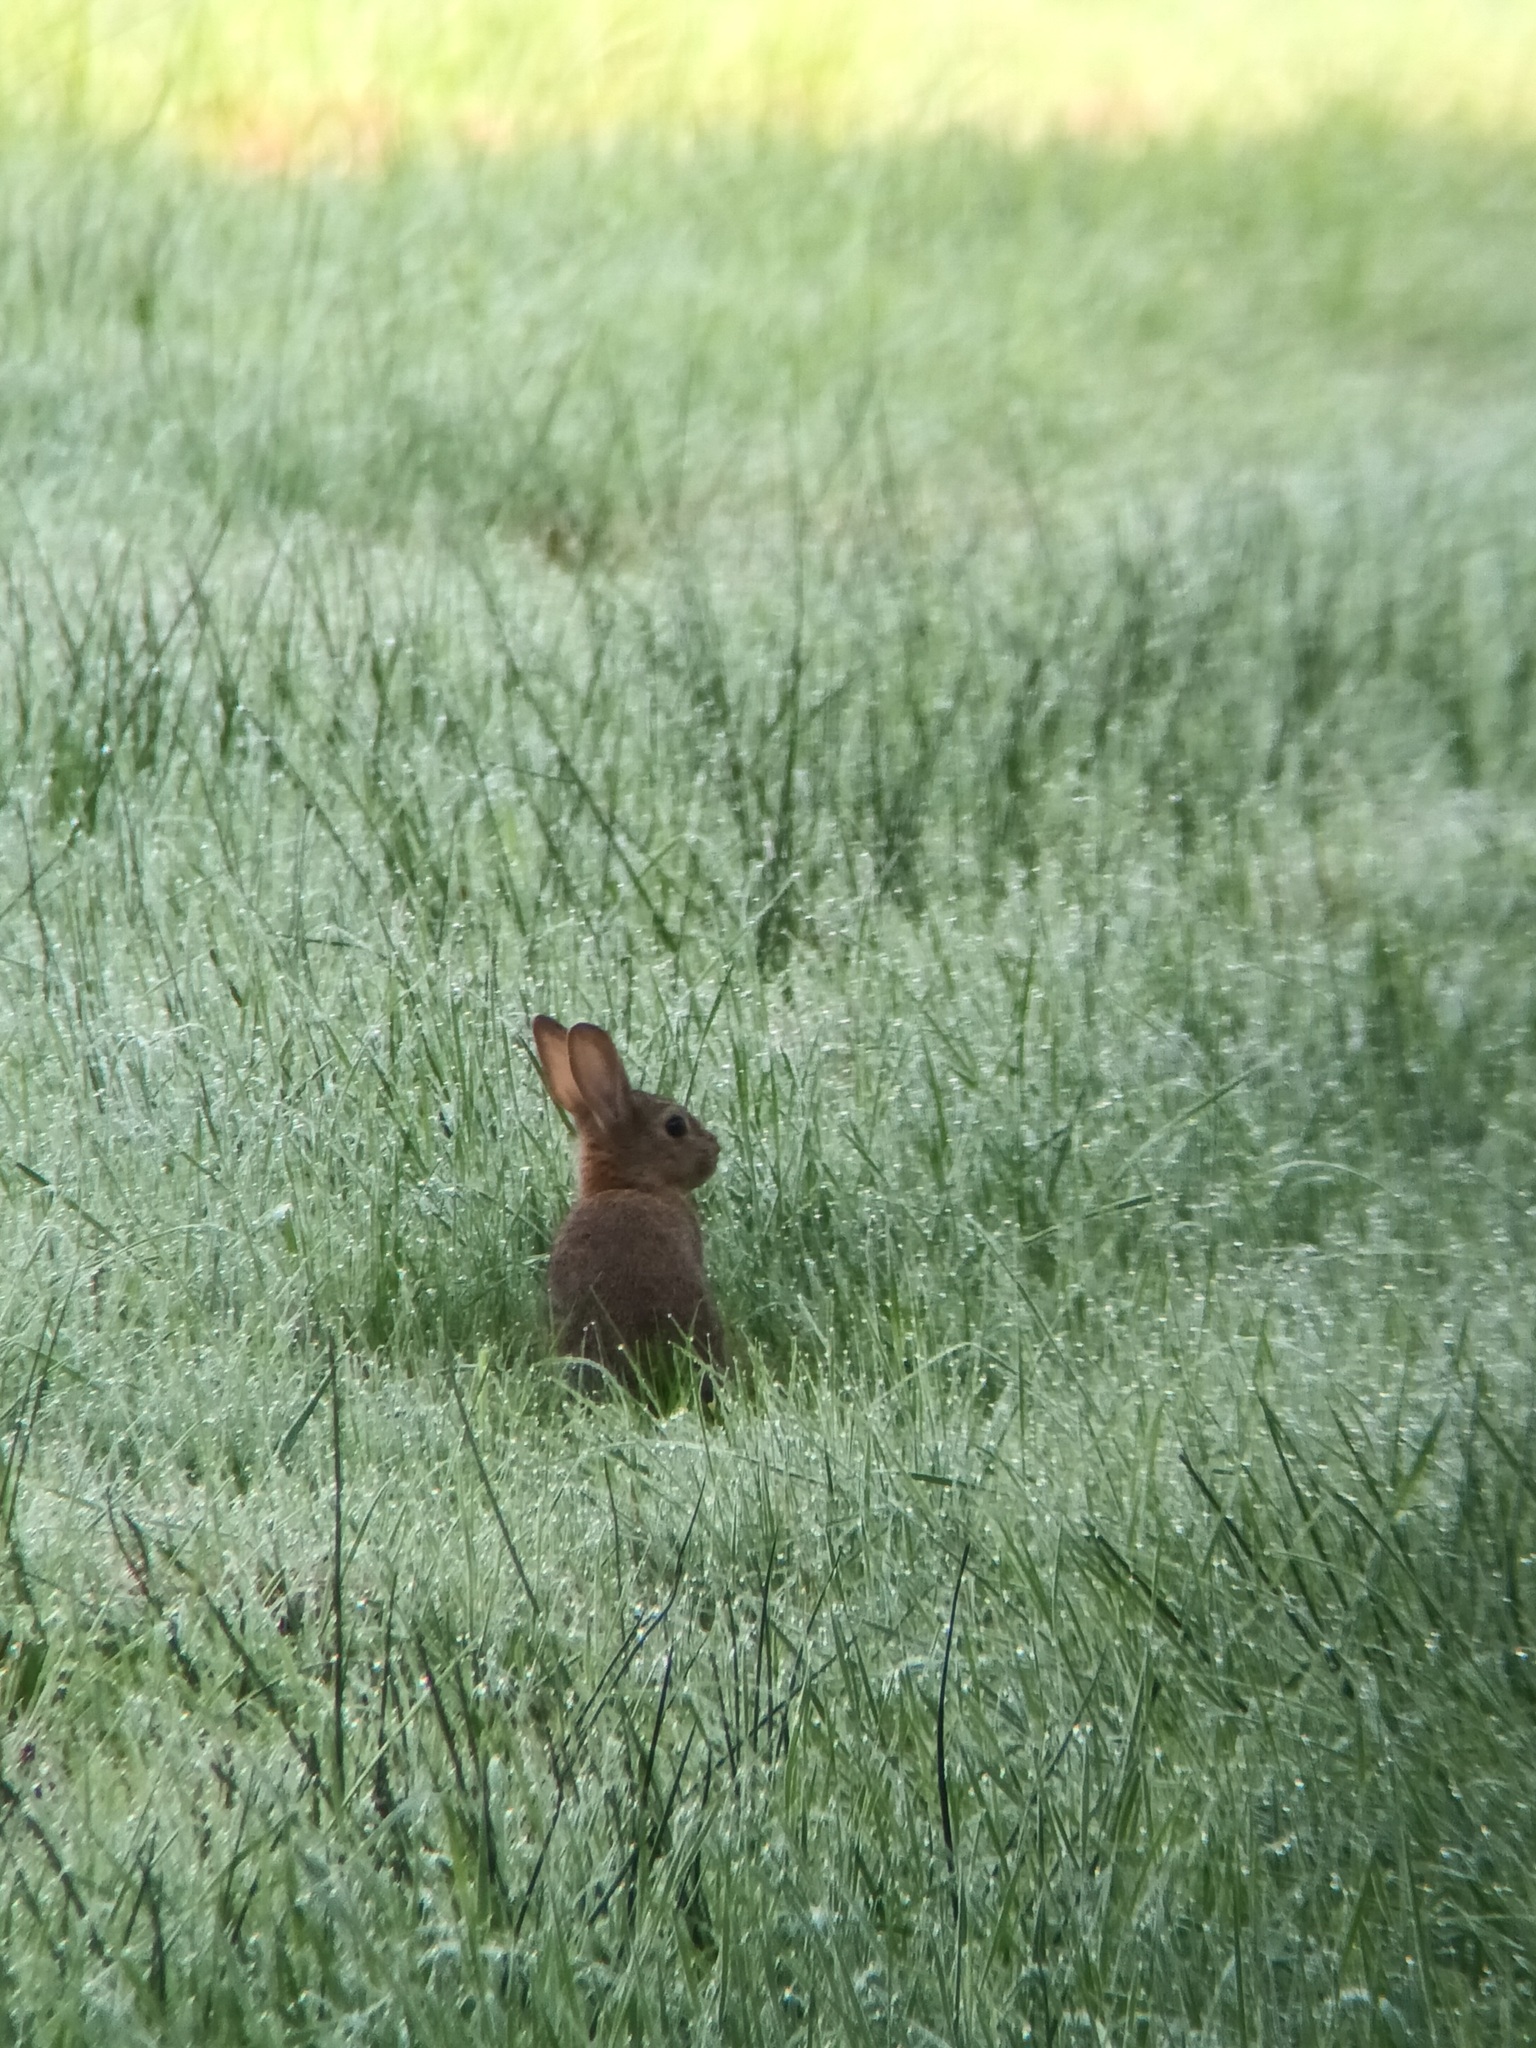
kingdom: Animalia
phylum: Chordata
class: Mammalia
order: Lagomorpha
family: Leporidae
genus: Oryctolagus
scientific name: Oryctolagus cuniculus
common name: European rabbit
